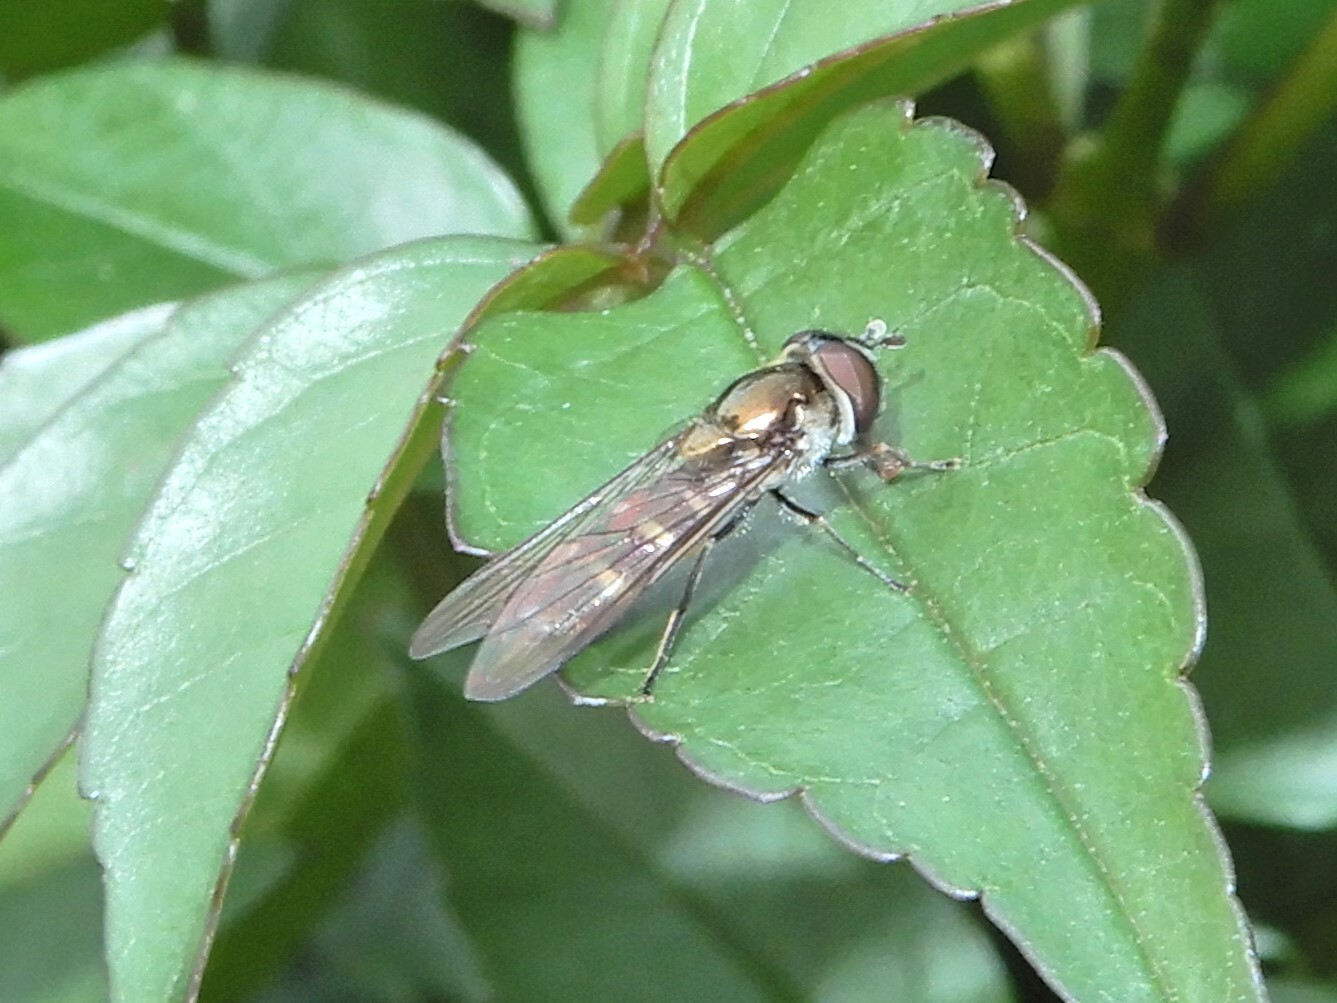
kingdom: Animalia
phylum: Arthropoda
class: Insecta
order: Diptera
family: Syrphidae
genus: Melangyna
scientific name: Melangyna novaezelandiae
